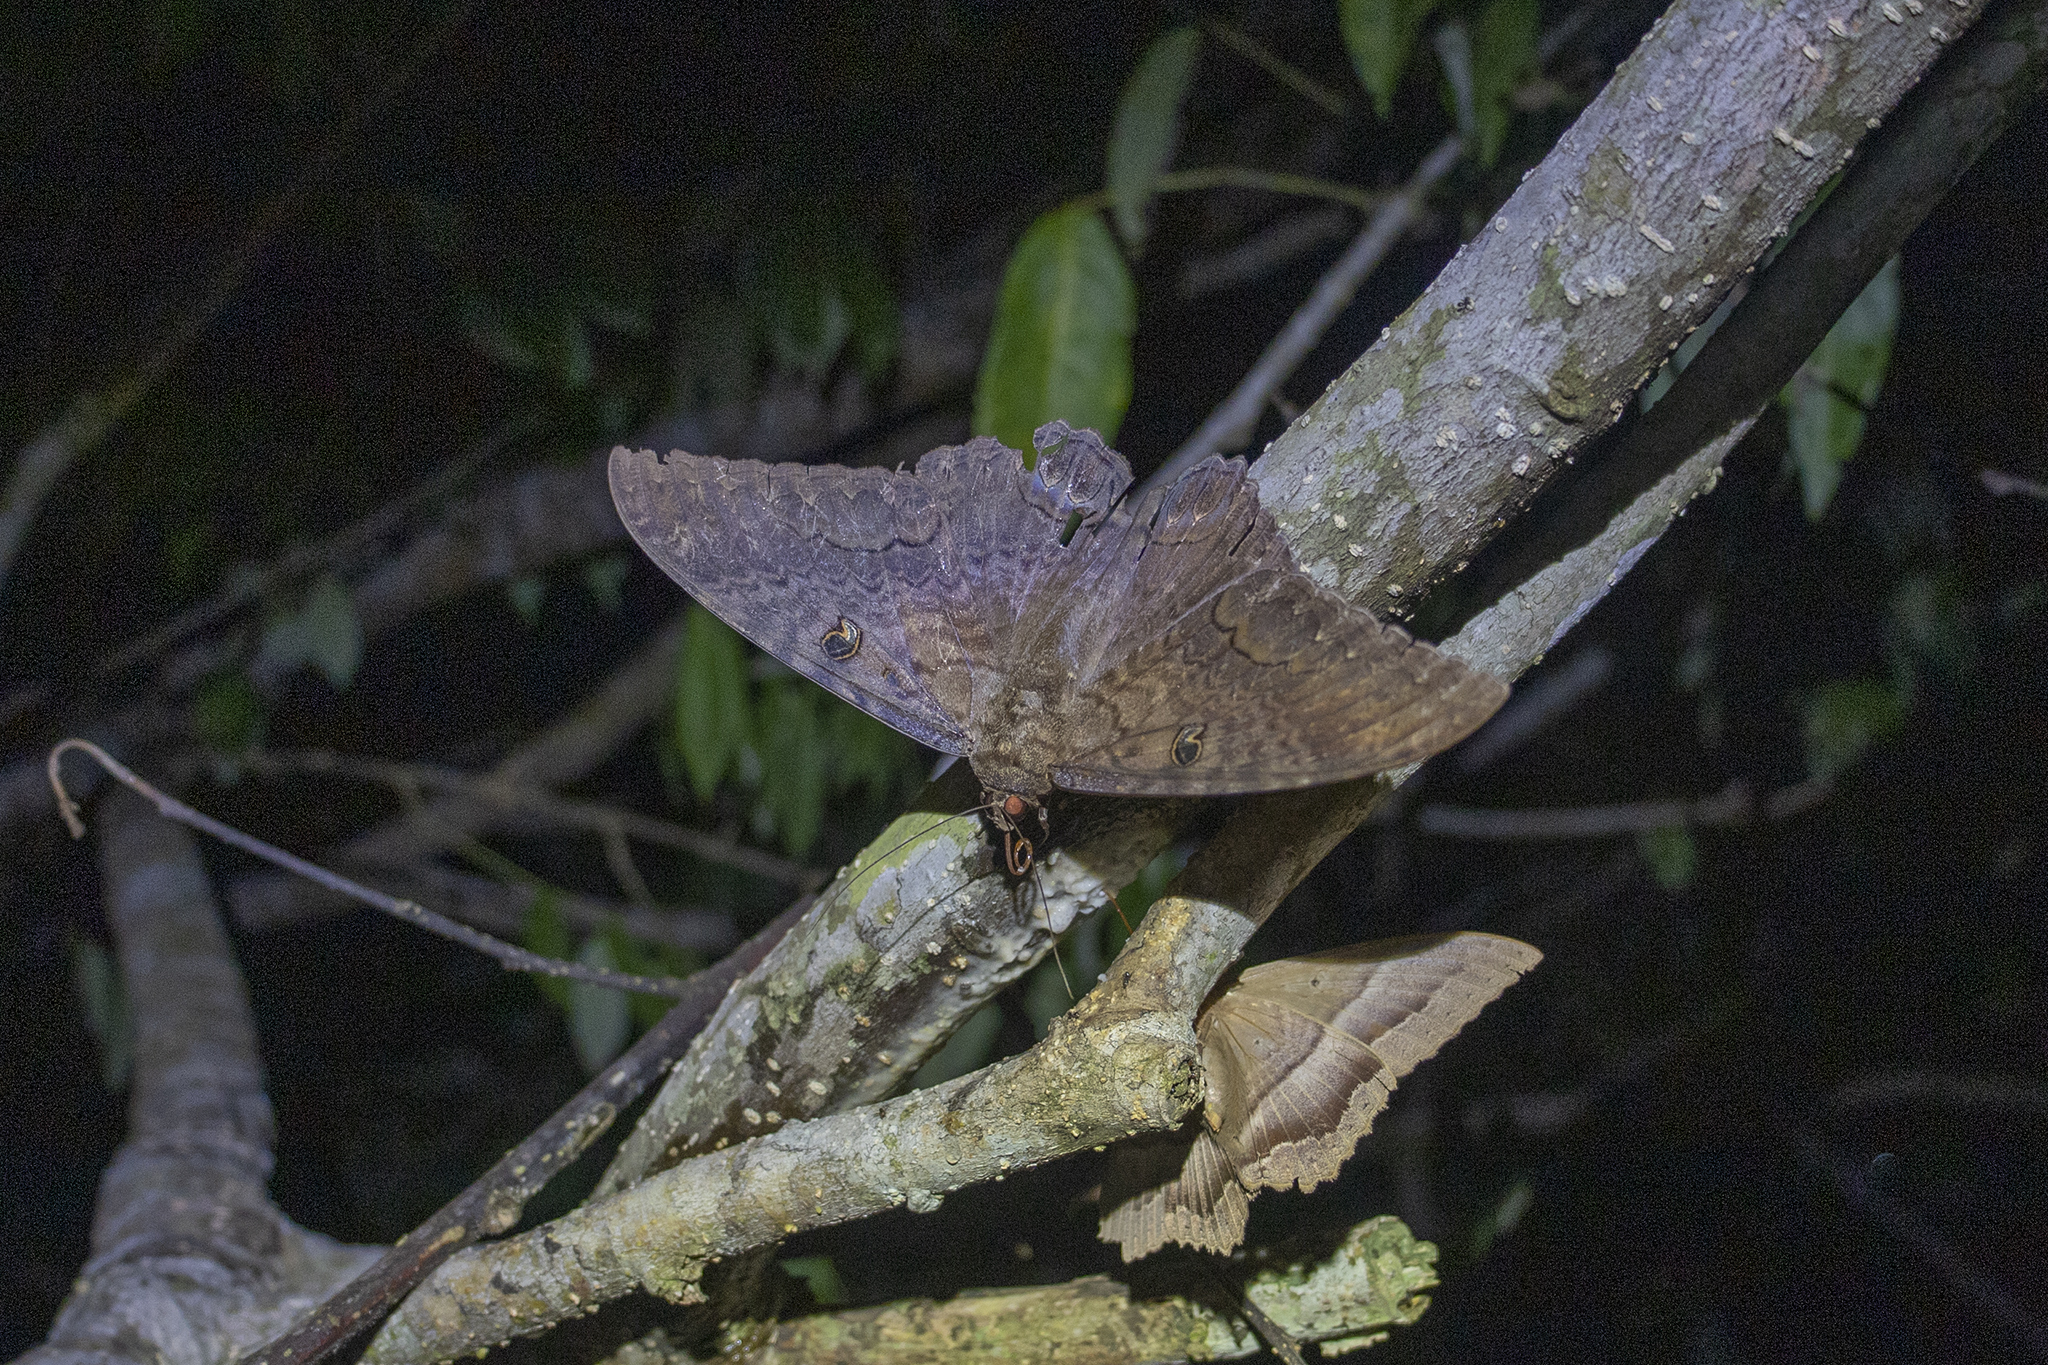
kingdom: Animalia
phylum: Arthropoda
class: Insecta
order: Lepidoptera
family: Erebidae
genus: Ascalapha
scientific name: Ascalapha odorata
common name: Black witch
